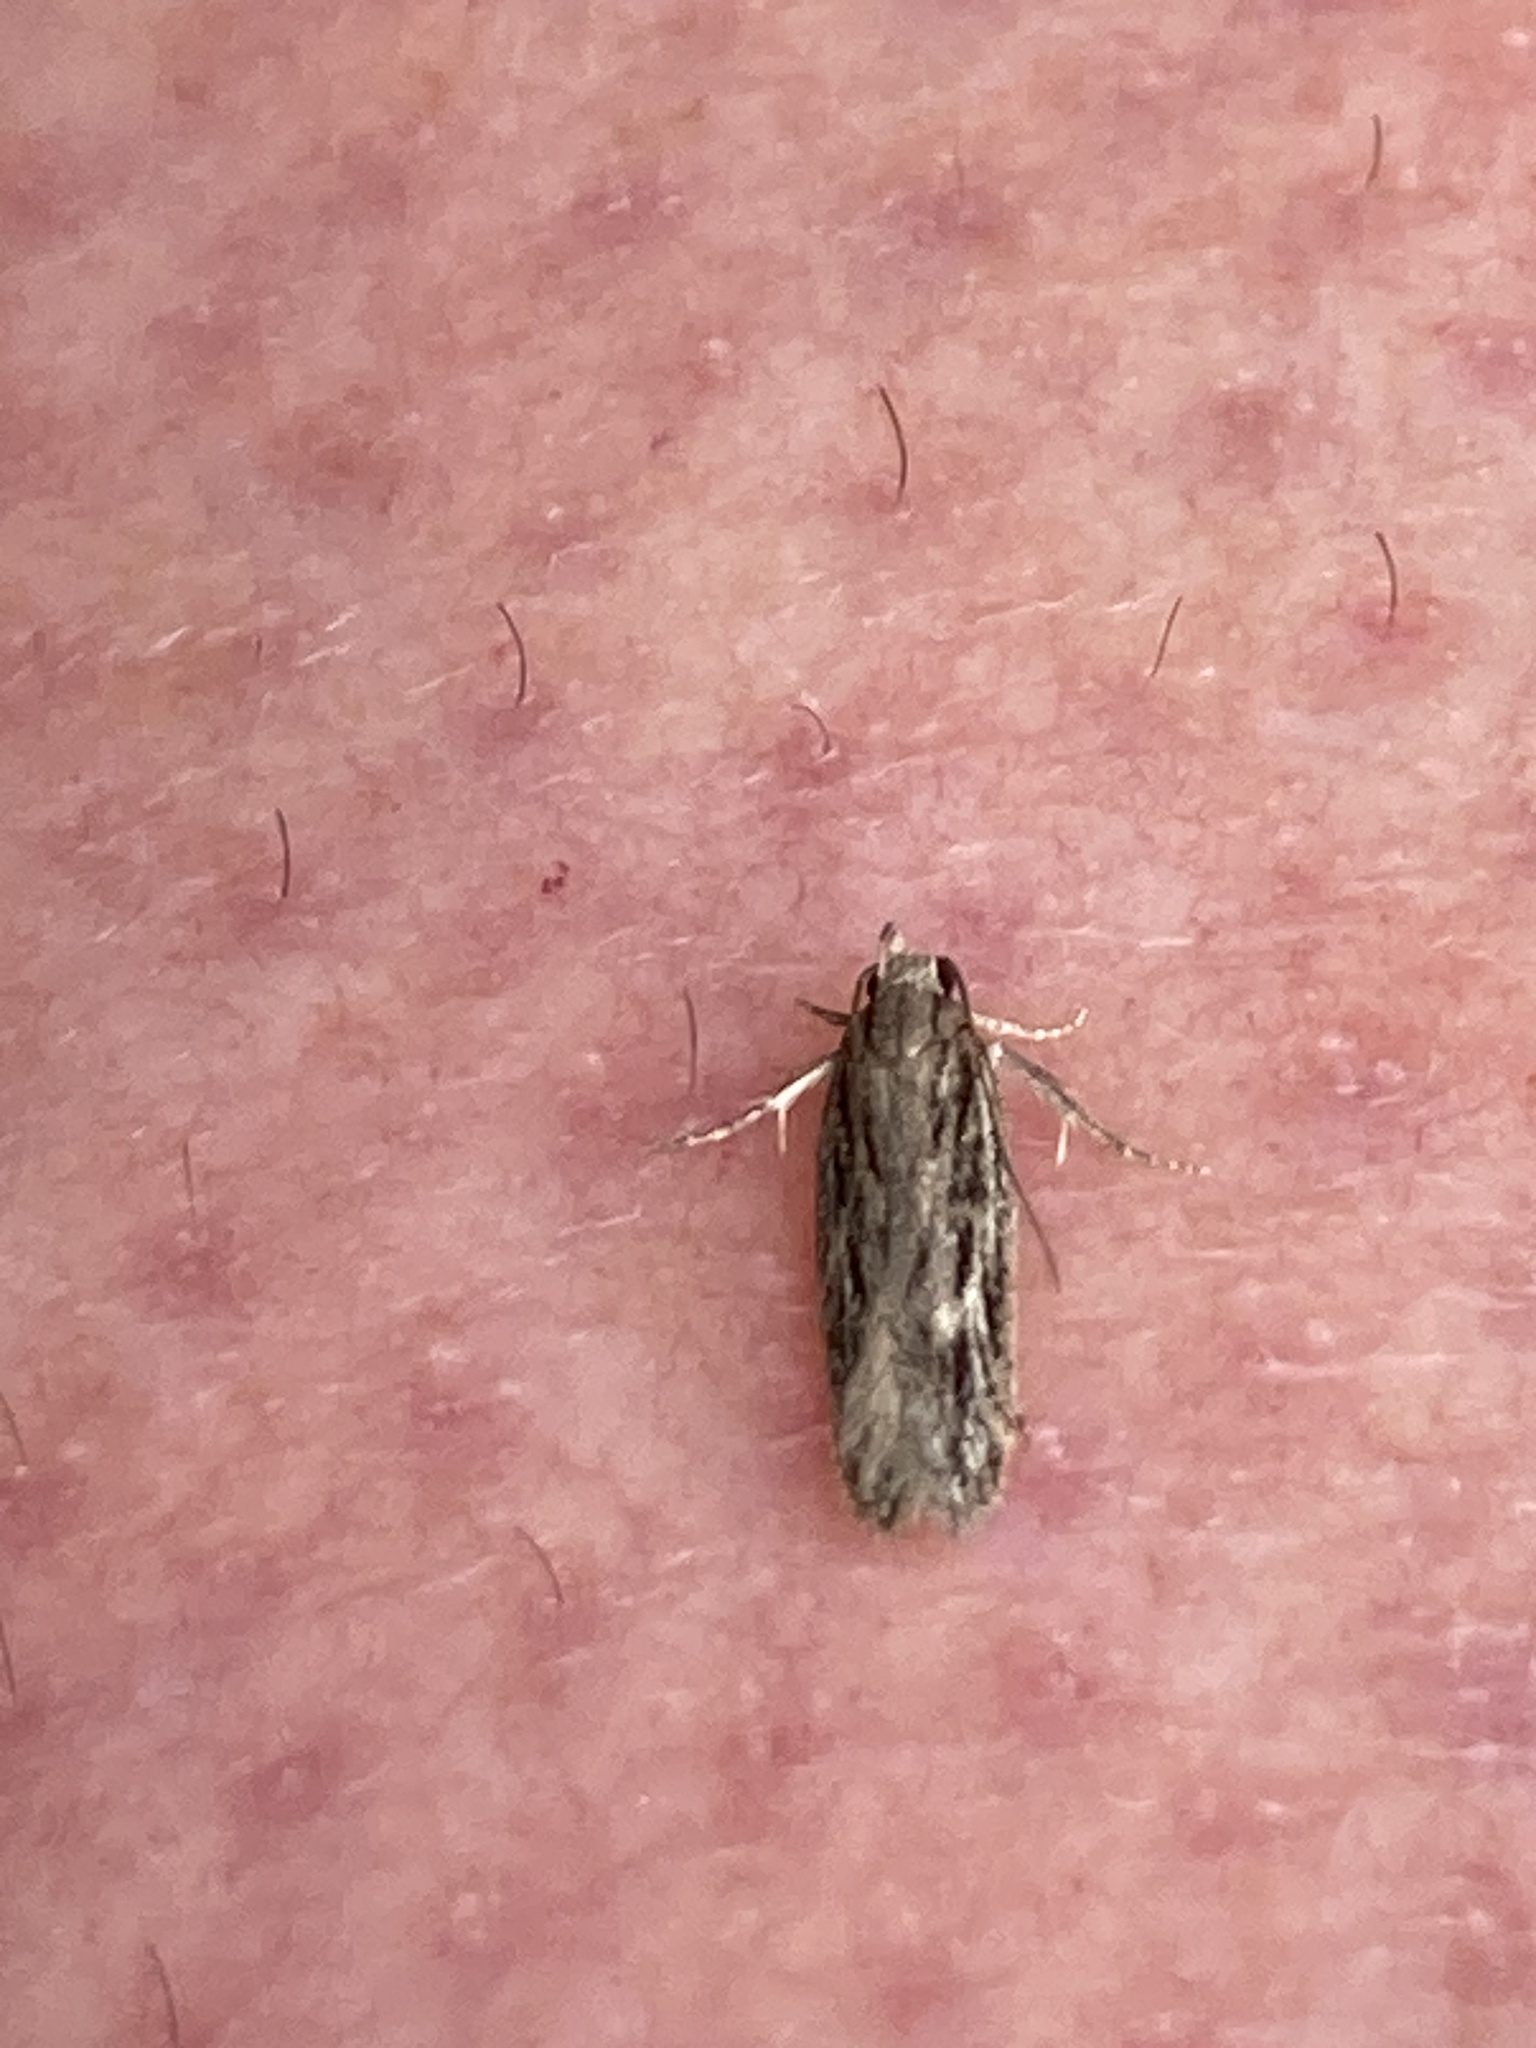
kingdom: Animalia
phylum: Arthropoda
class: Insecta
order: Lepidoptera
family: Oecophoridae
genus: Hofmannophila
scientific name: Hofmannophila pseudospretella
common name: Brown house moth
